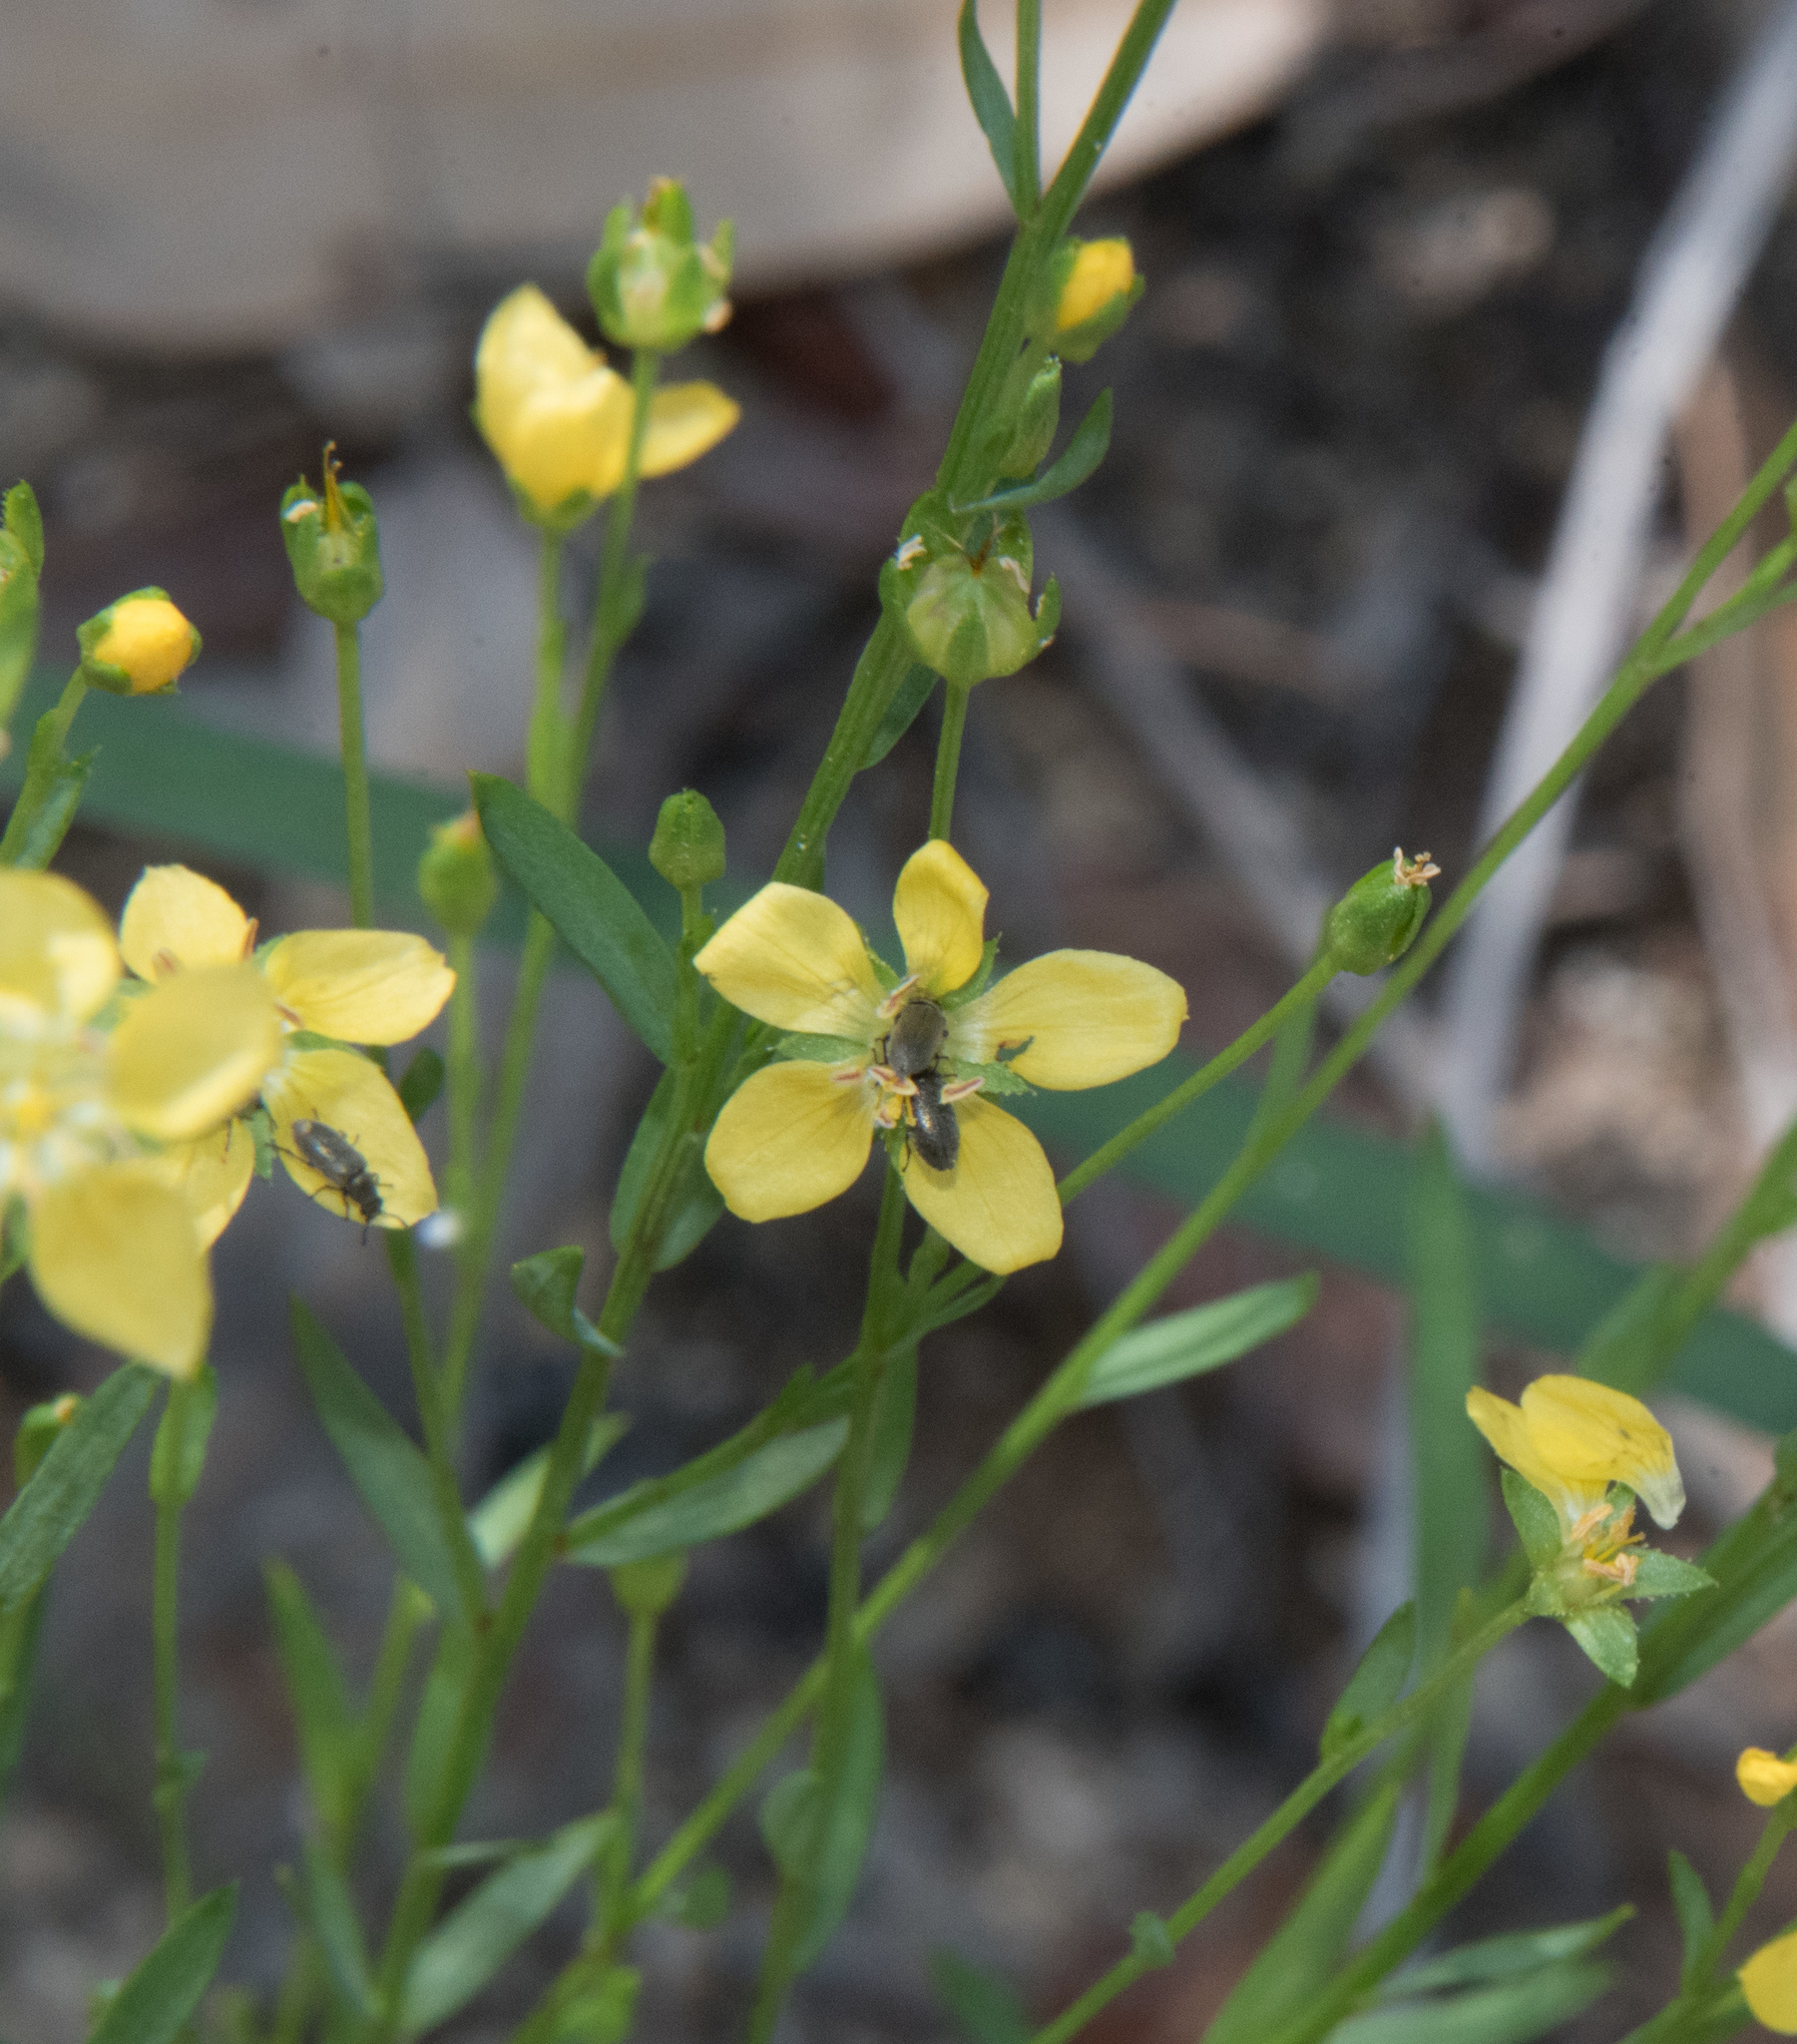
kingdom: Plantae
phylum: Tracheophyta
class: Magnoliopsida
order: Malpighiales
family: Linaceae
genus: Linum
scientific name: Linum neomexicanum
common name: New mexico yellow flax
